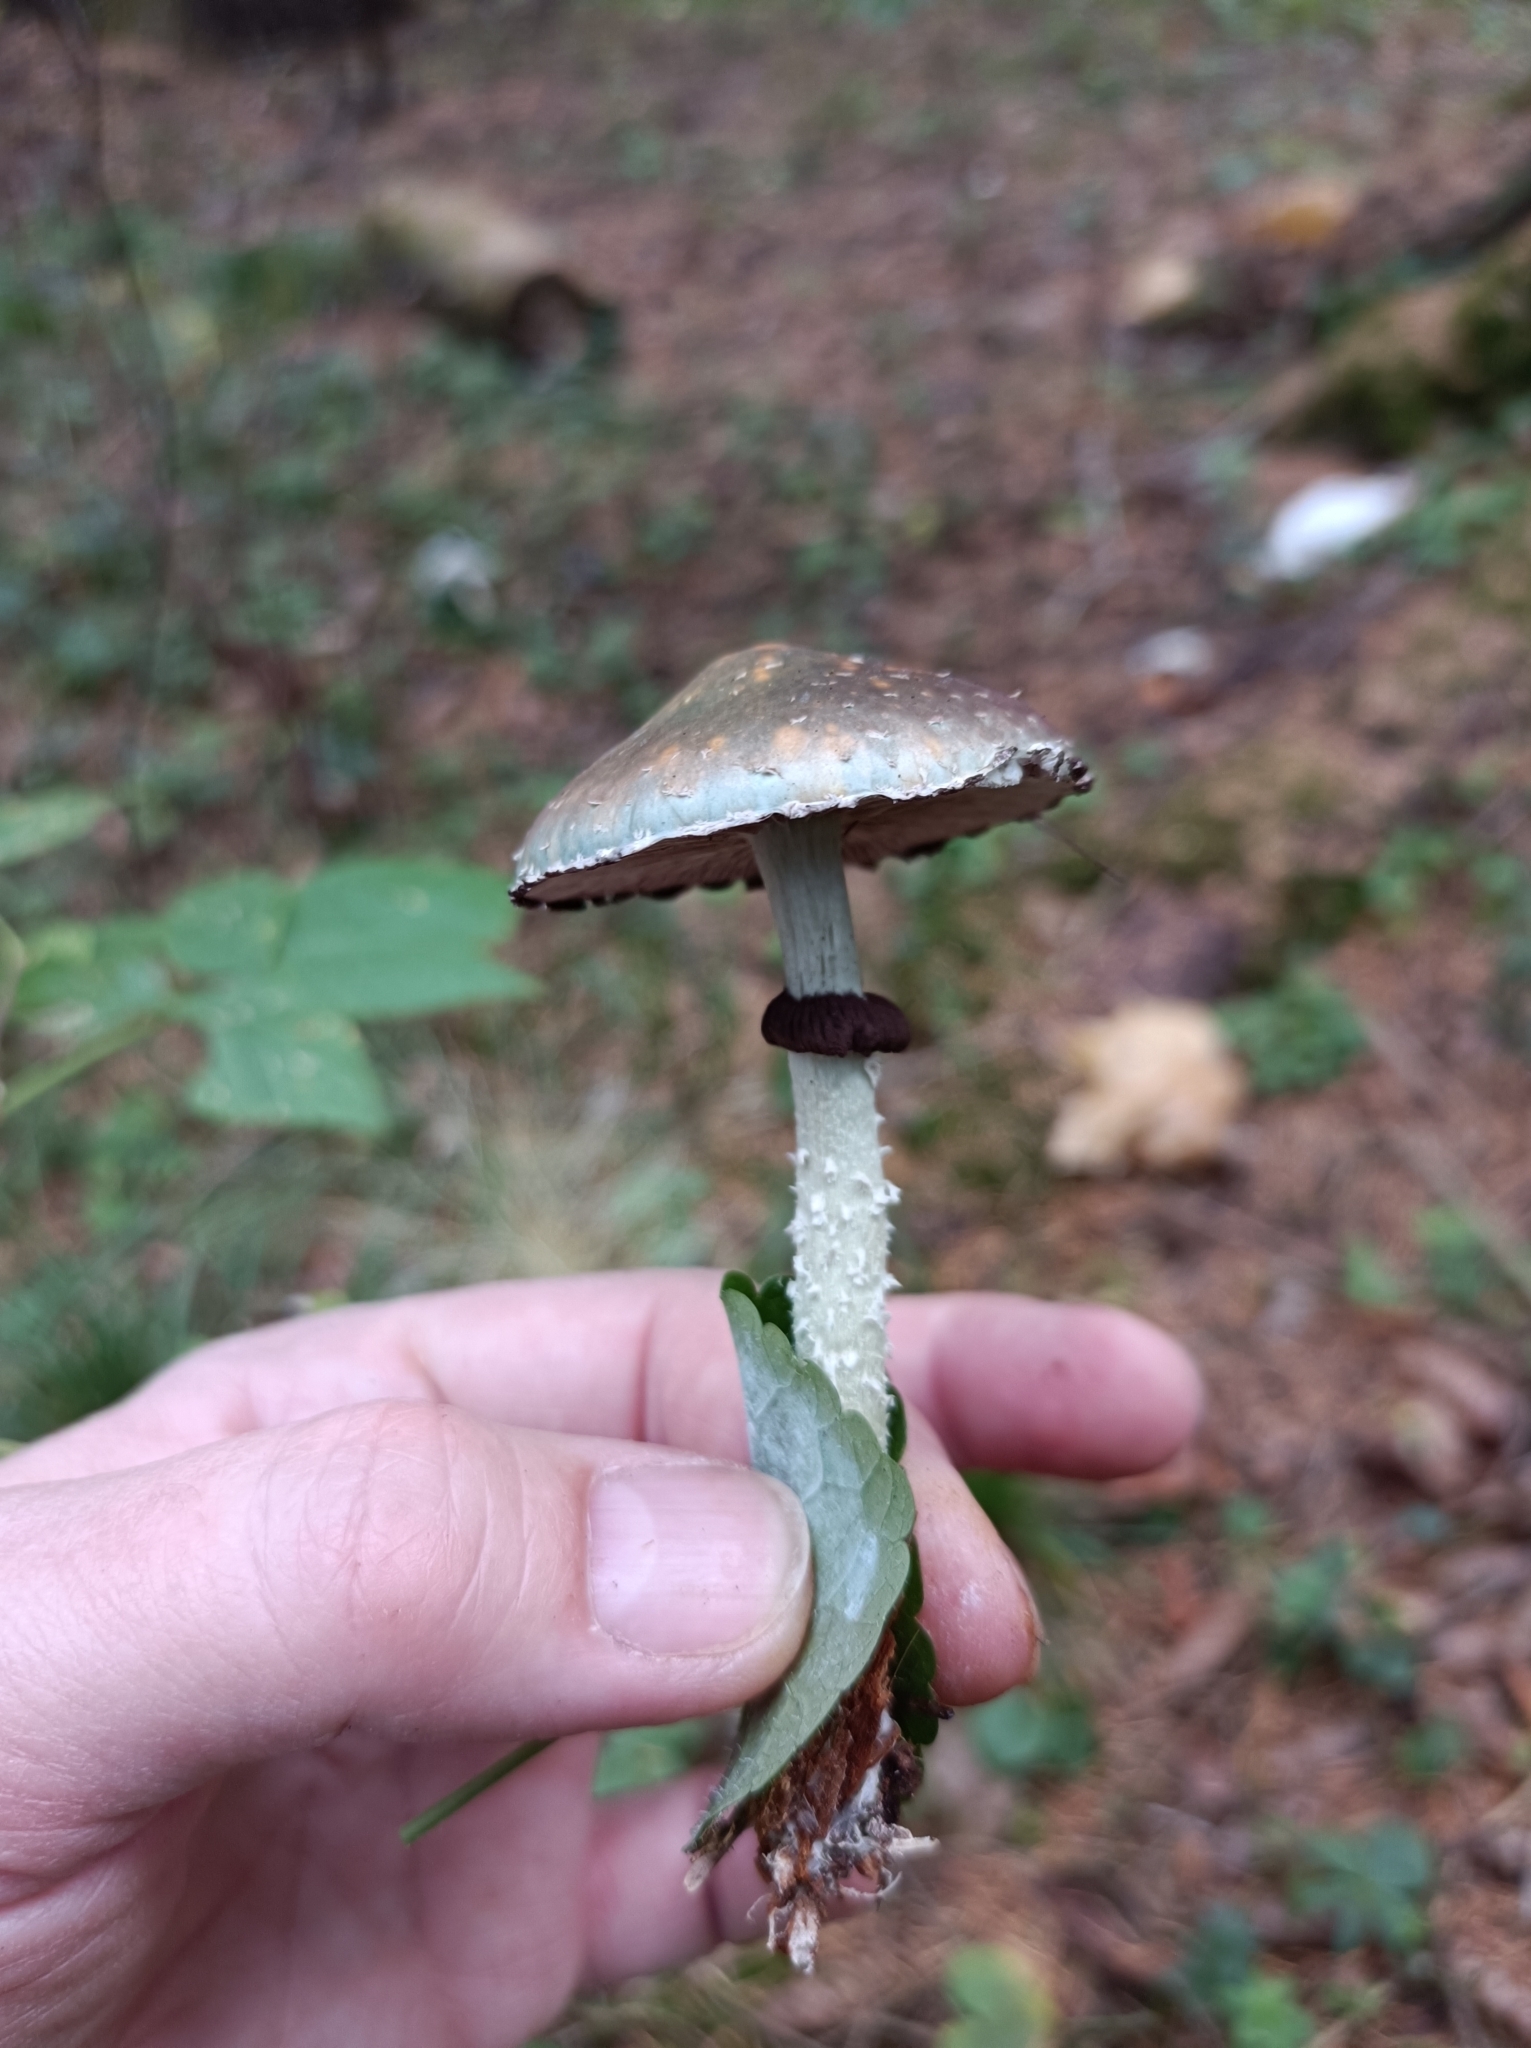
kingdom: Fungi
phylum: Basidiomycota
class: Agaricomycetes
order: Agaricales
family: Strophariaceae
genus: Stropharia
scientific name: Stropharia aeruginosa
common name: Verdigris roundhead
